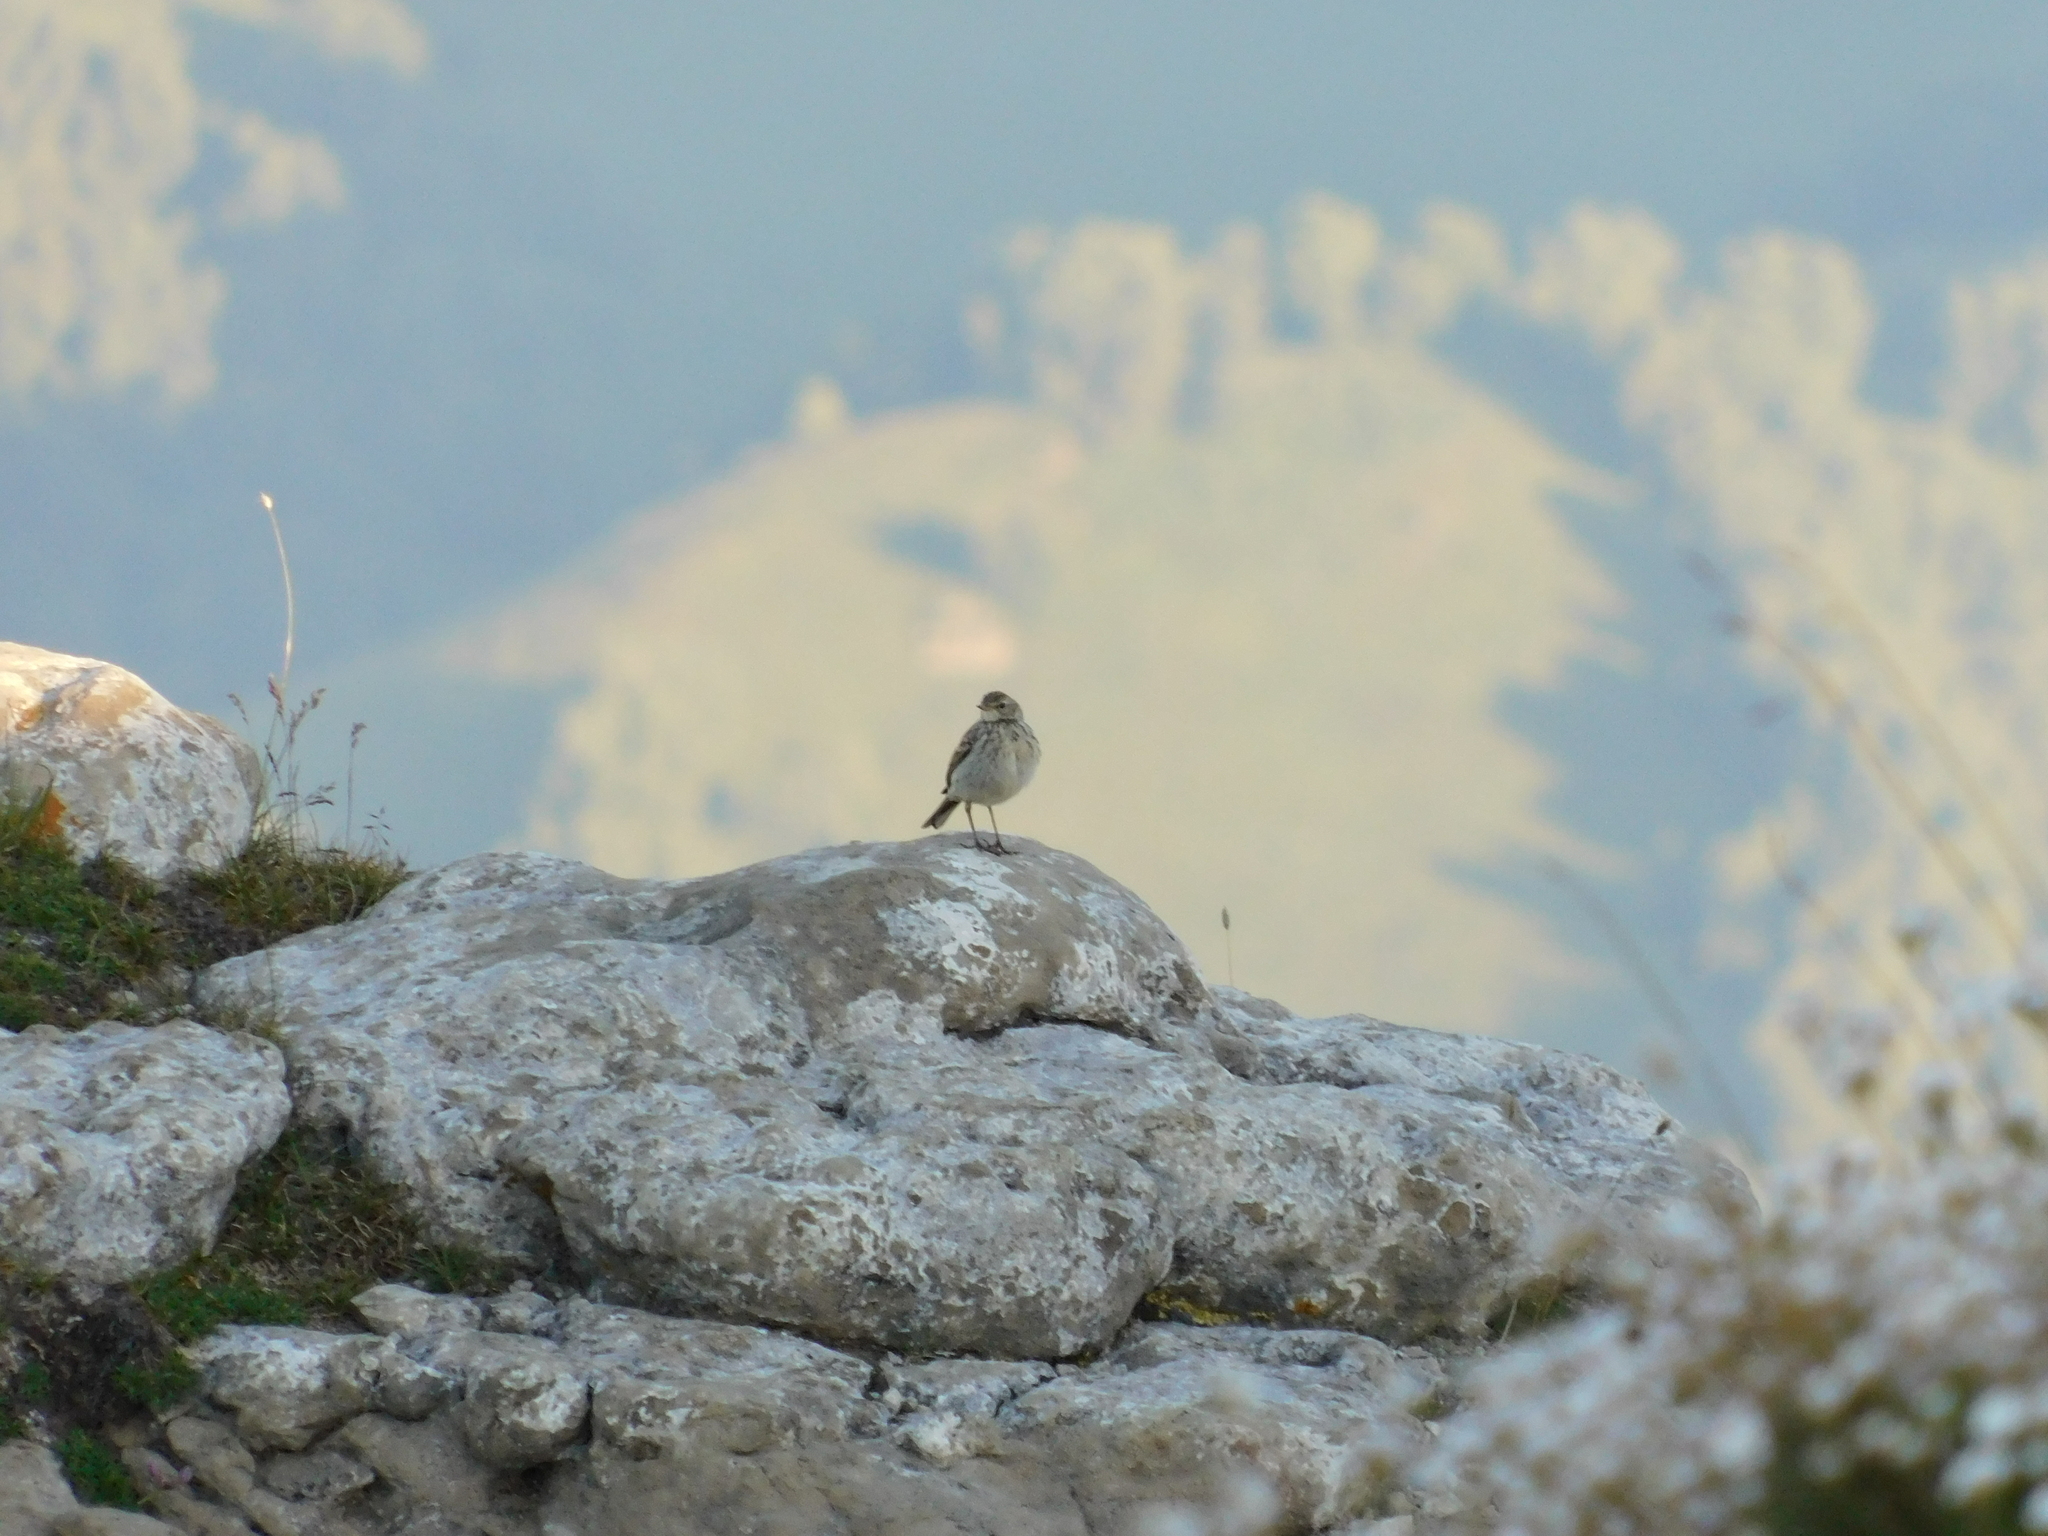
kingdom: Animalia
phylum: Chordata
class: Aves
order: Passeriformes
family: Motacillidae
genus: Anthus
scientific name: Anthus spinoletta
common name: Water pipit
